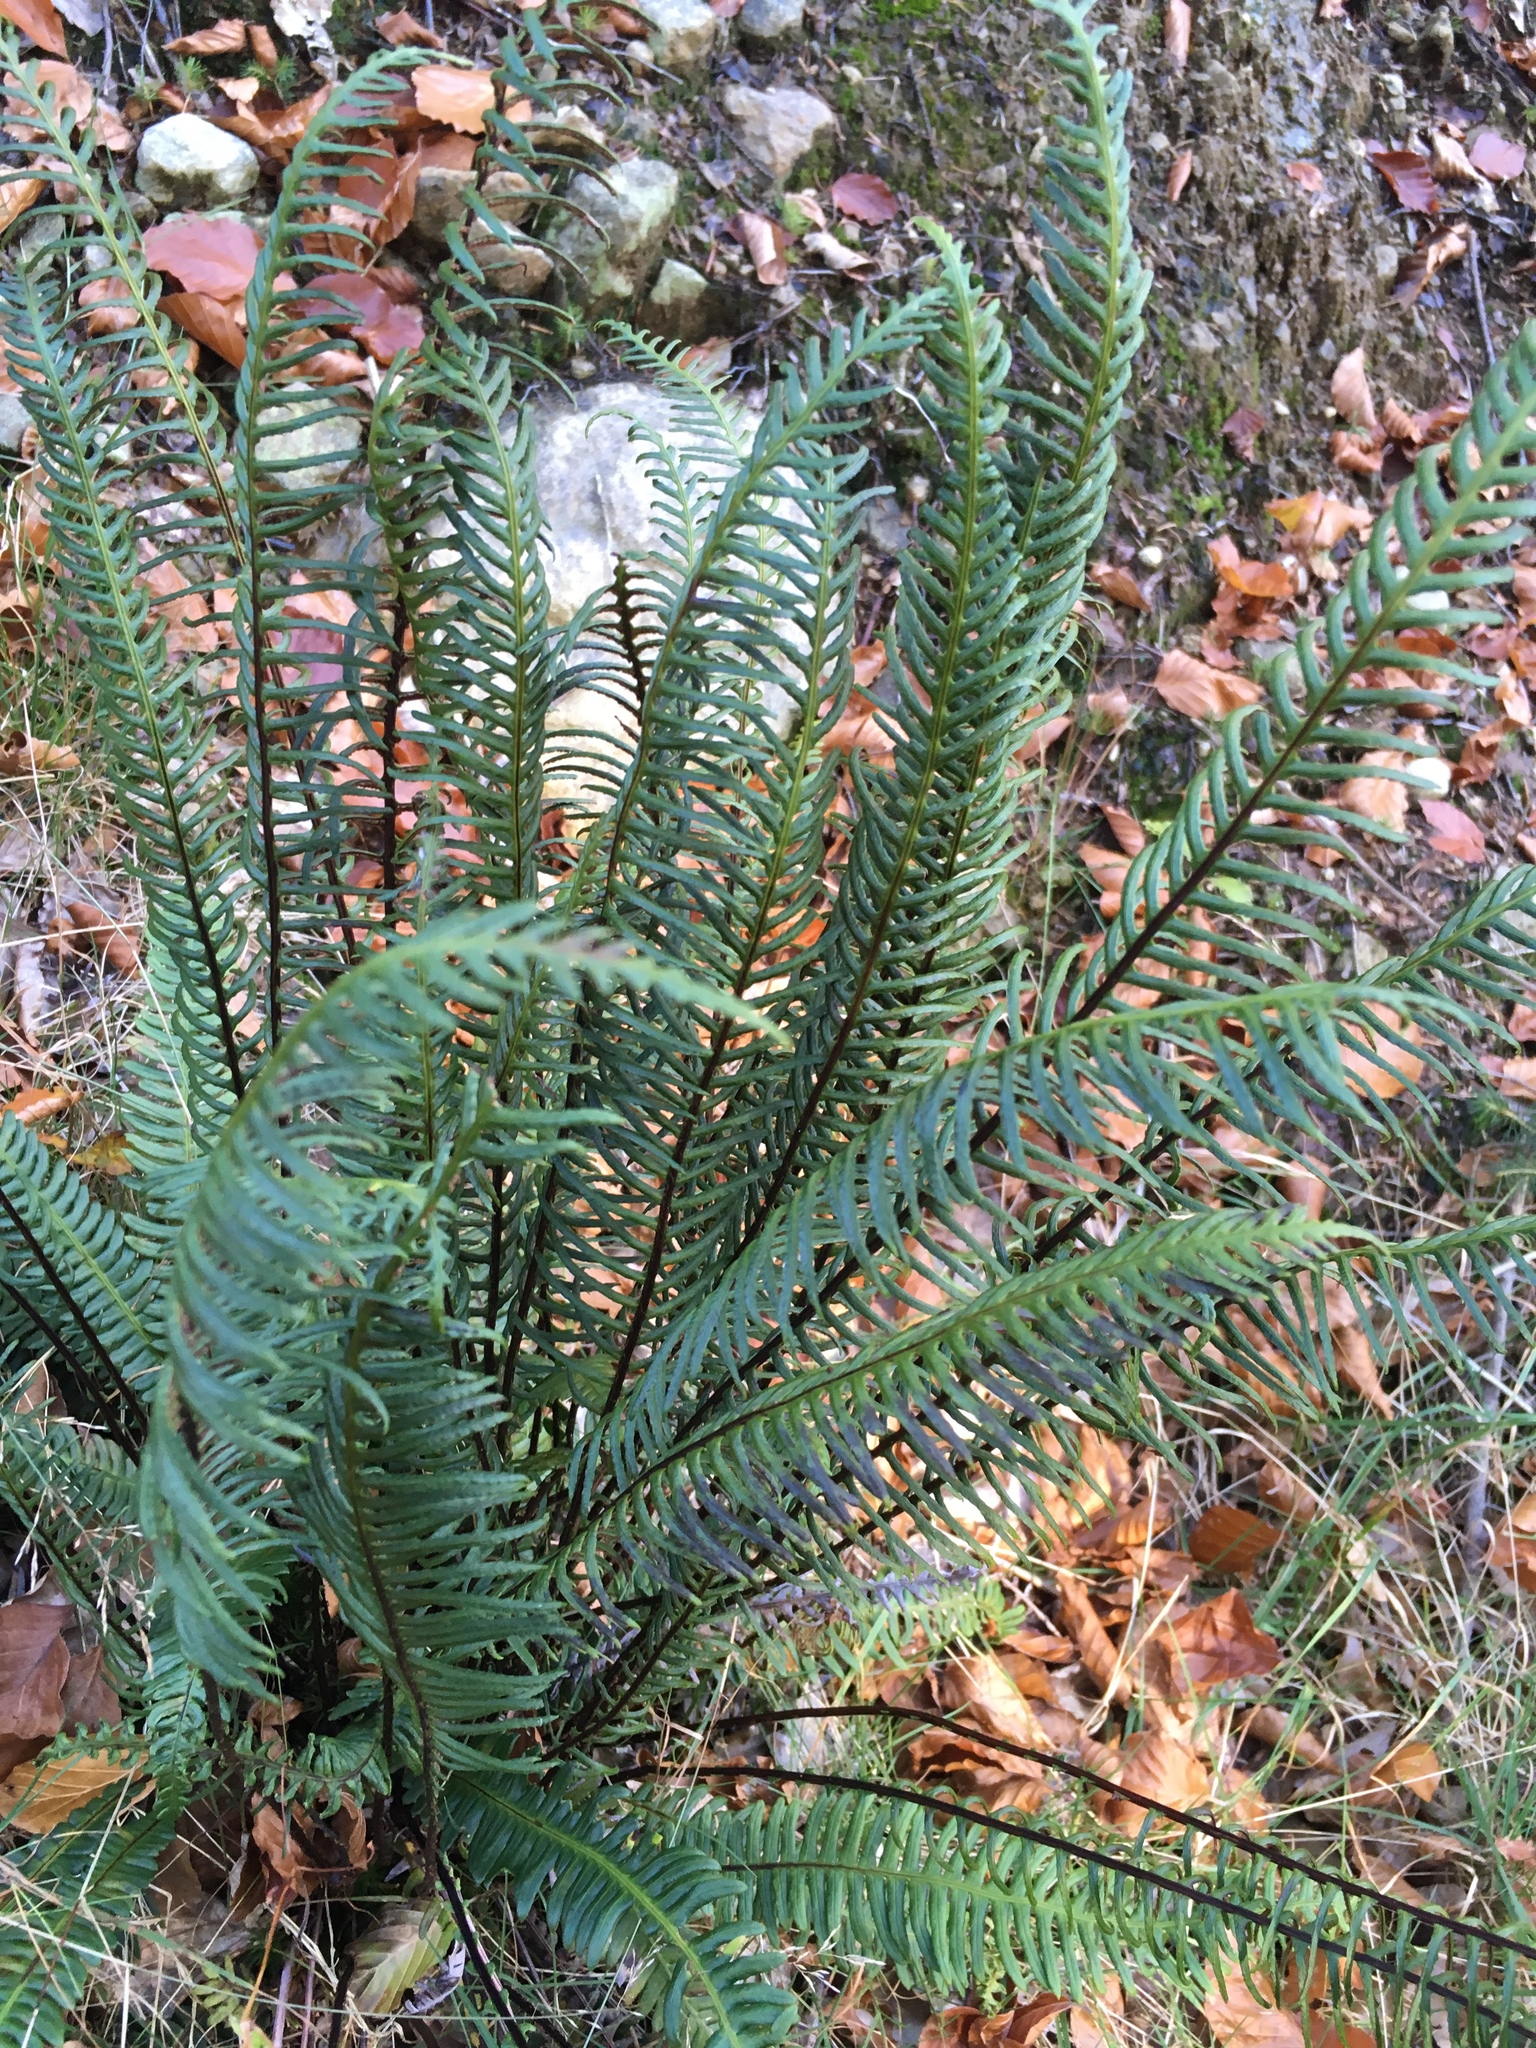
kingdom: Plantae
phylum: Tracheophyta
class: Polypodiopsida
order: Polypodiales
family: Blechnaceae
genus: Struthiopteris
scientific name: Struthiopteris spicant
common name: Deer fern
